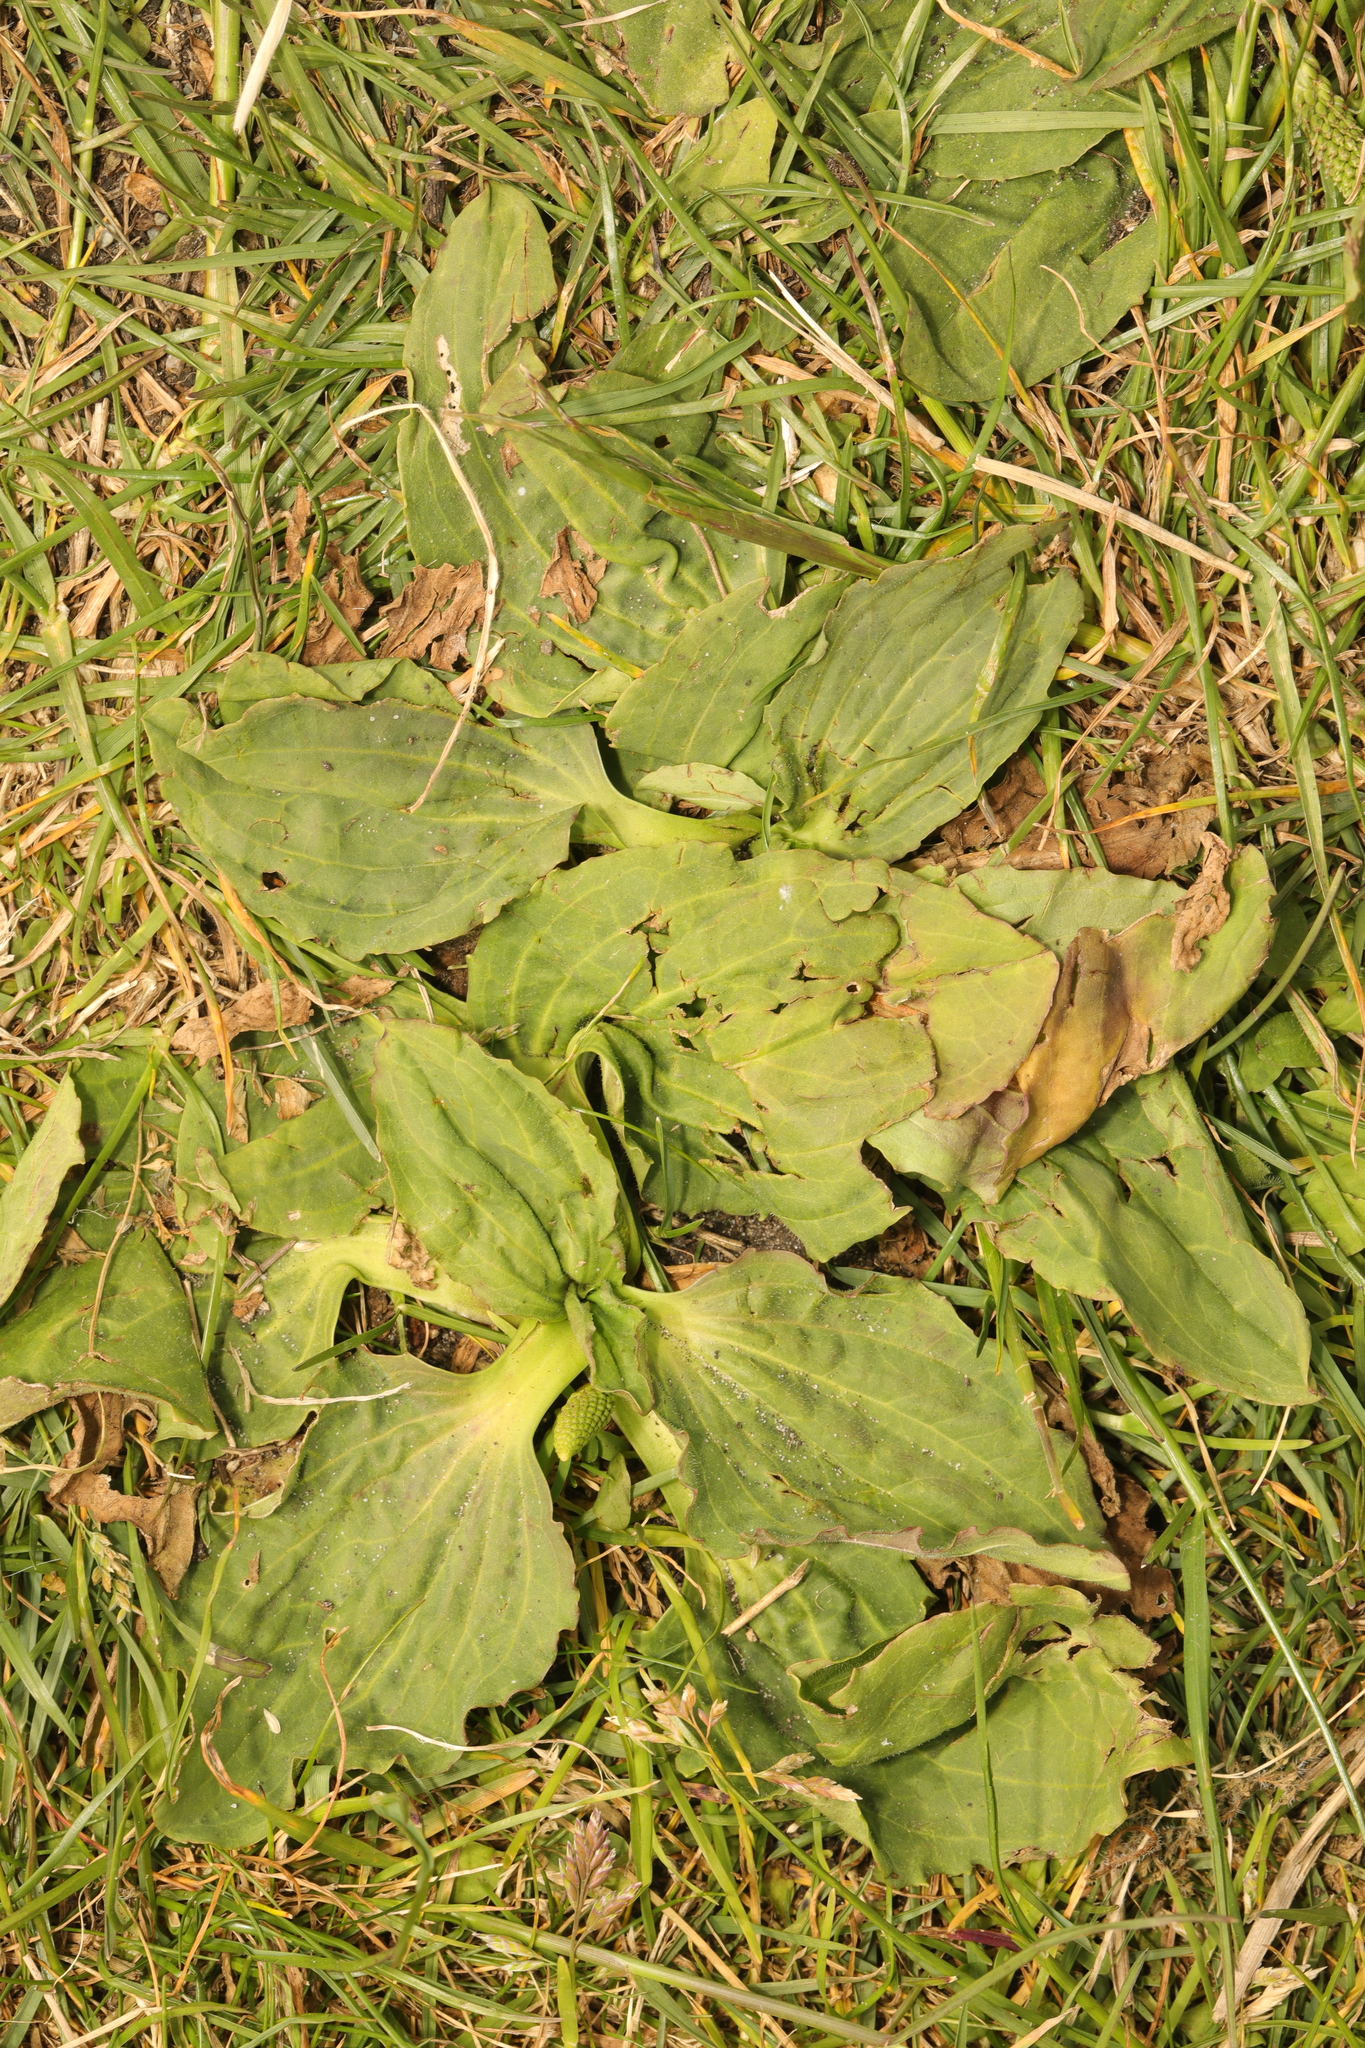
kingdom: Plantae
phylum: Tracheophyta
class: Magnoliopsida
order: Lamiales
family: Plantaginaceae
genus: Plantago
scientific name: Plantago major
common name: Common plantain
